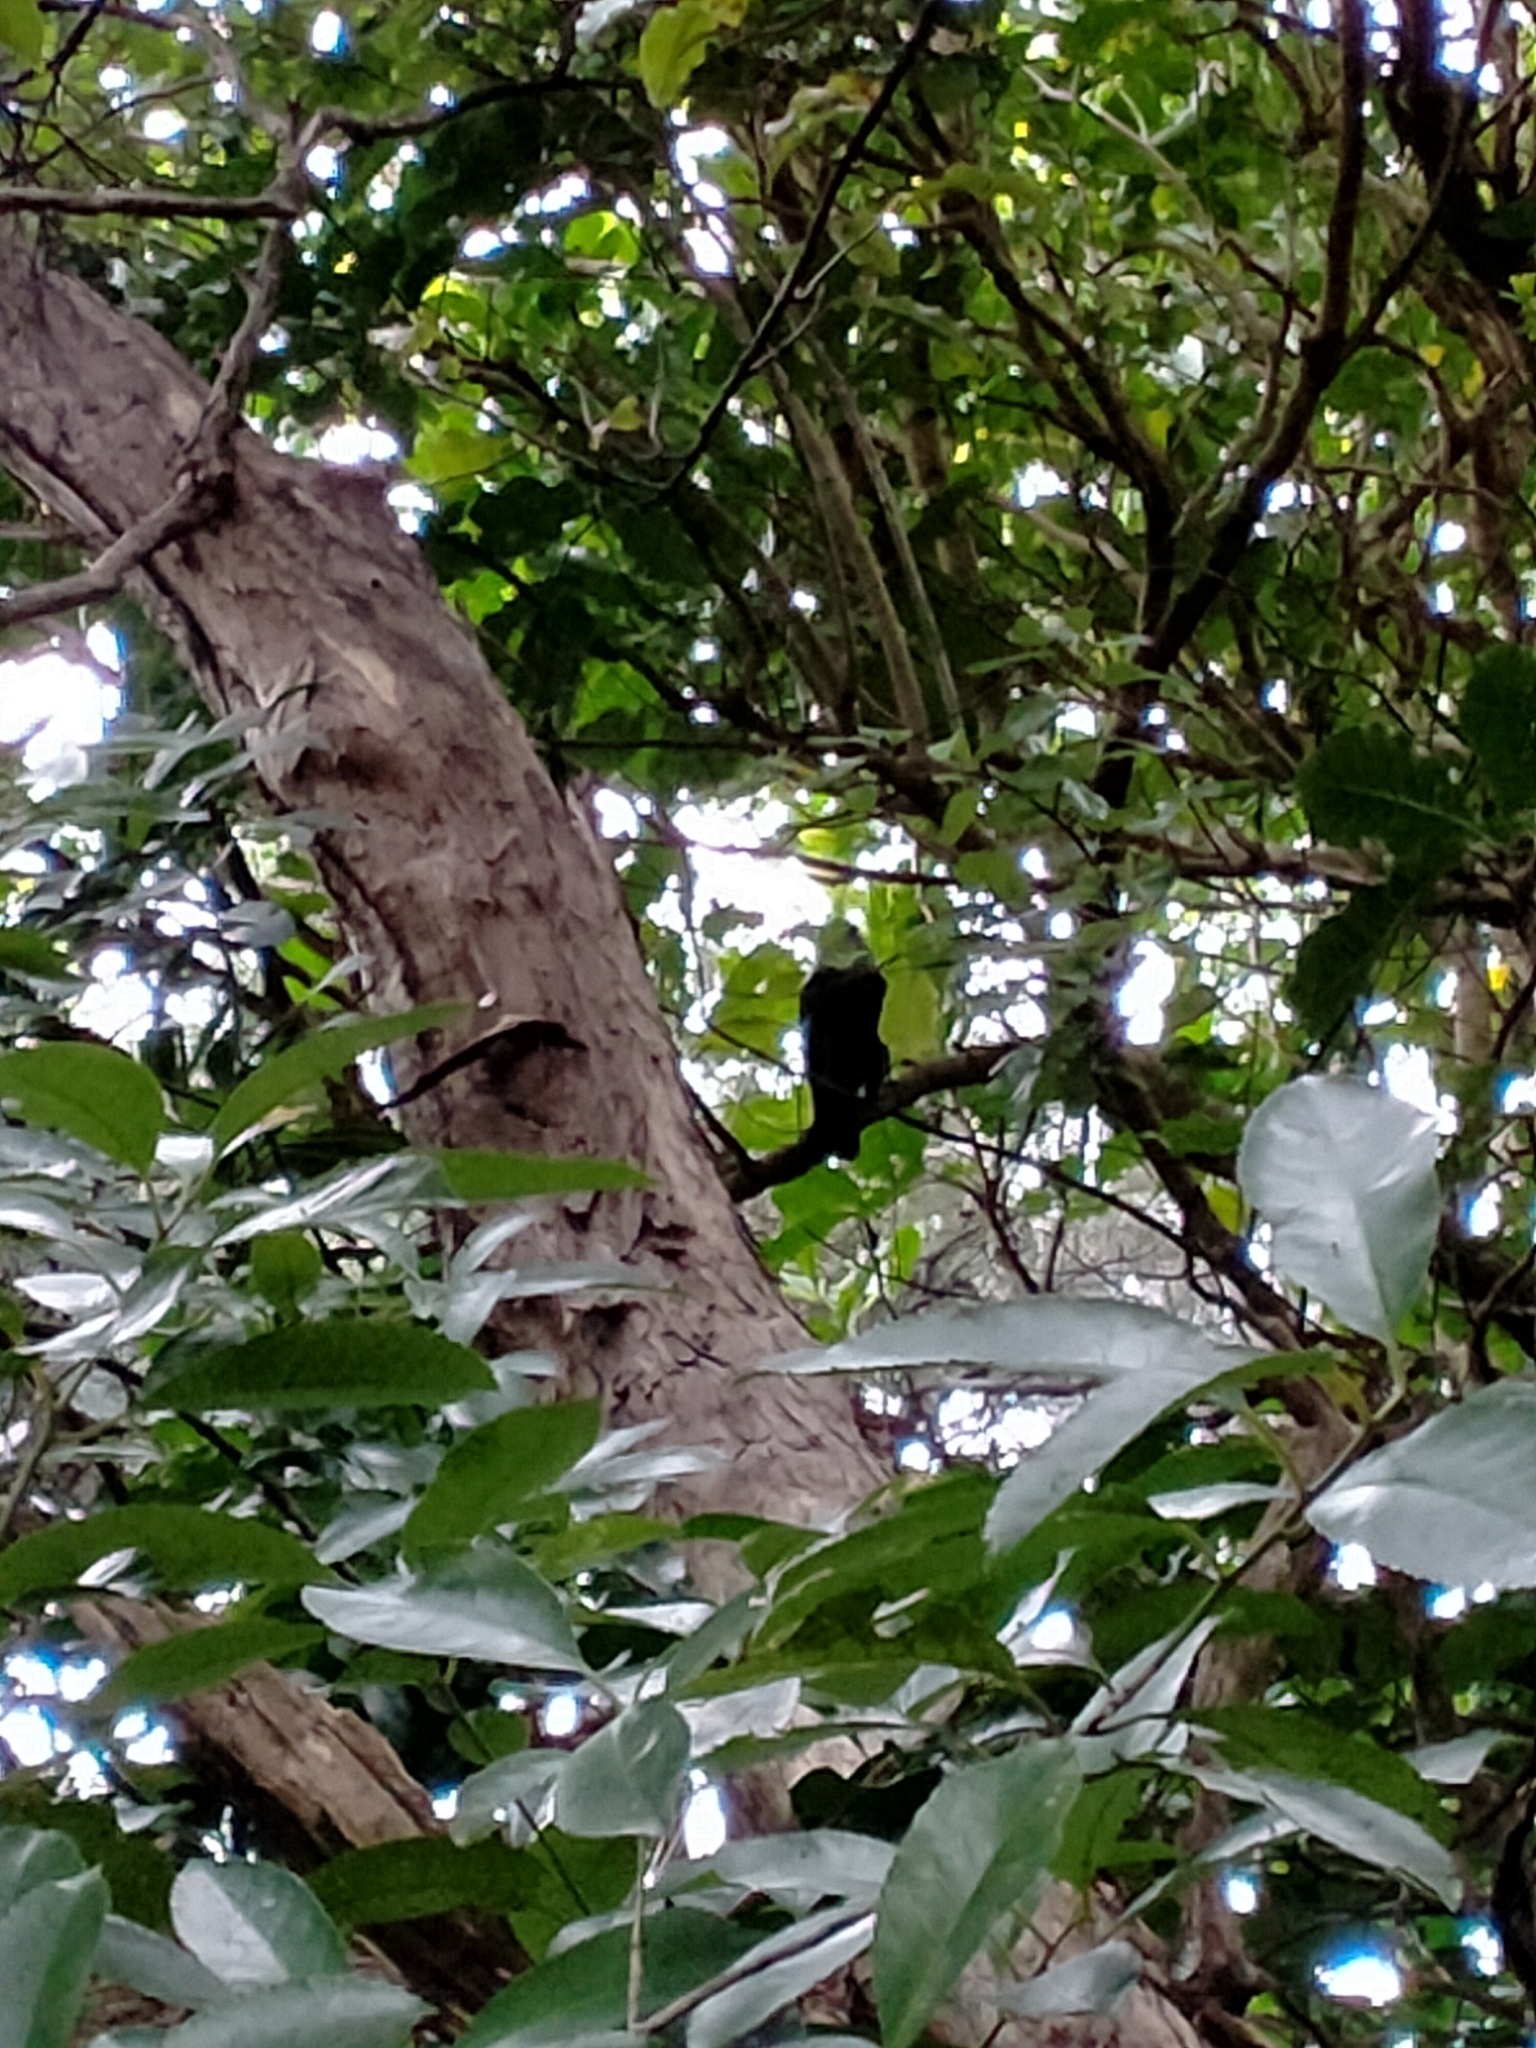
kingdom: Animalia
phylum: Chordata
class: Aves
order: Passeriformes
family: Meliphagidae
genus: Prosthemadera
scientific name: Prosthemadera novaeseelandiae
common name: Tui
